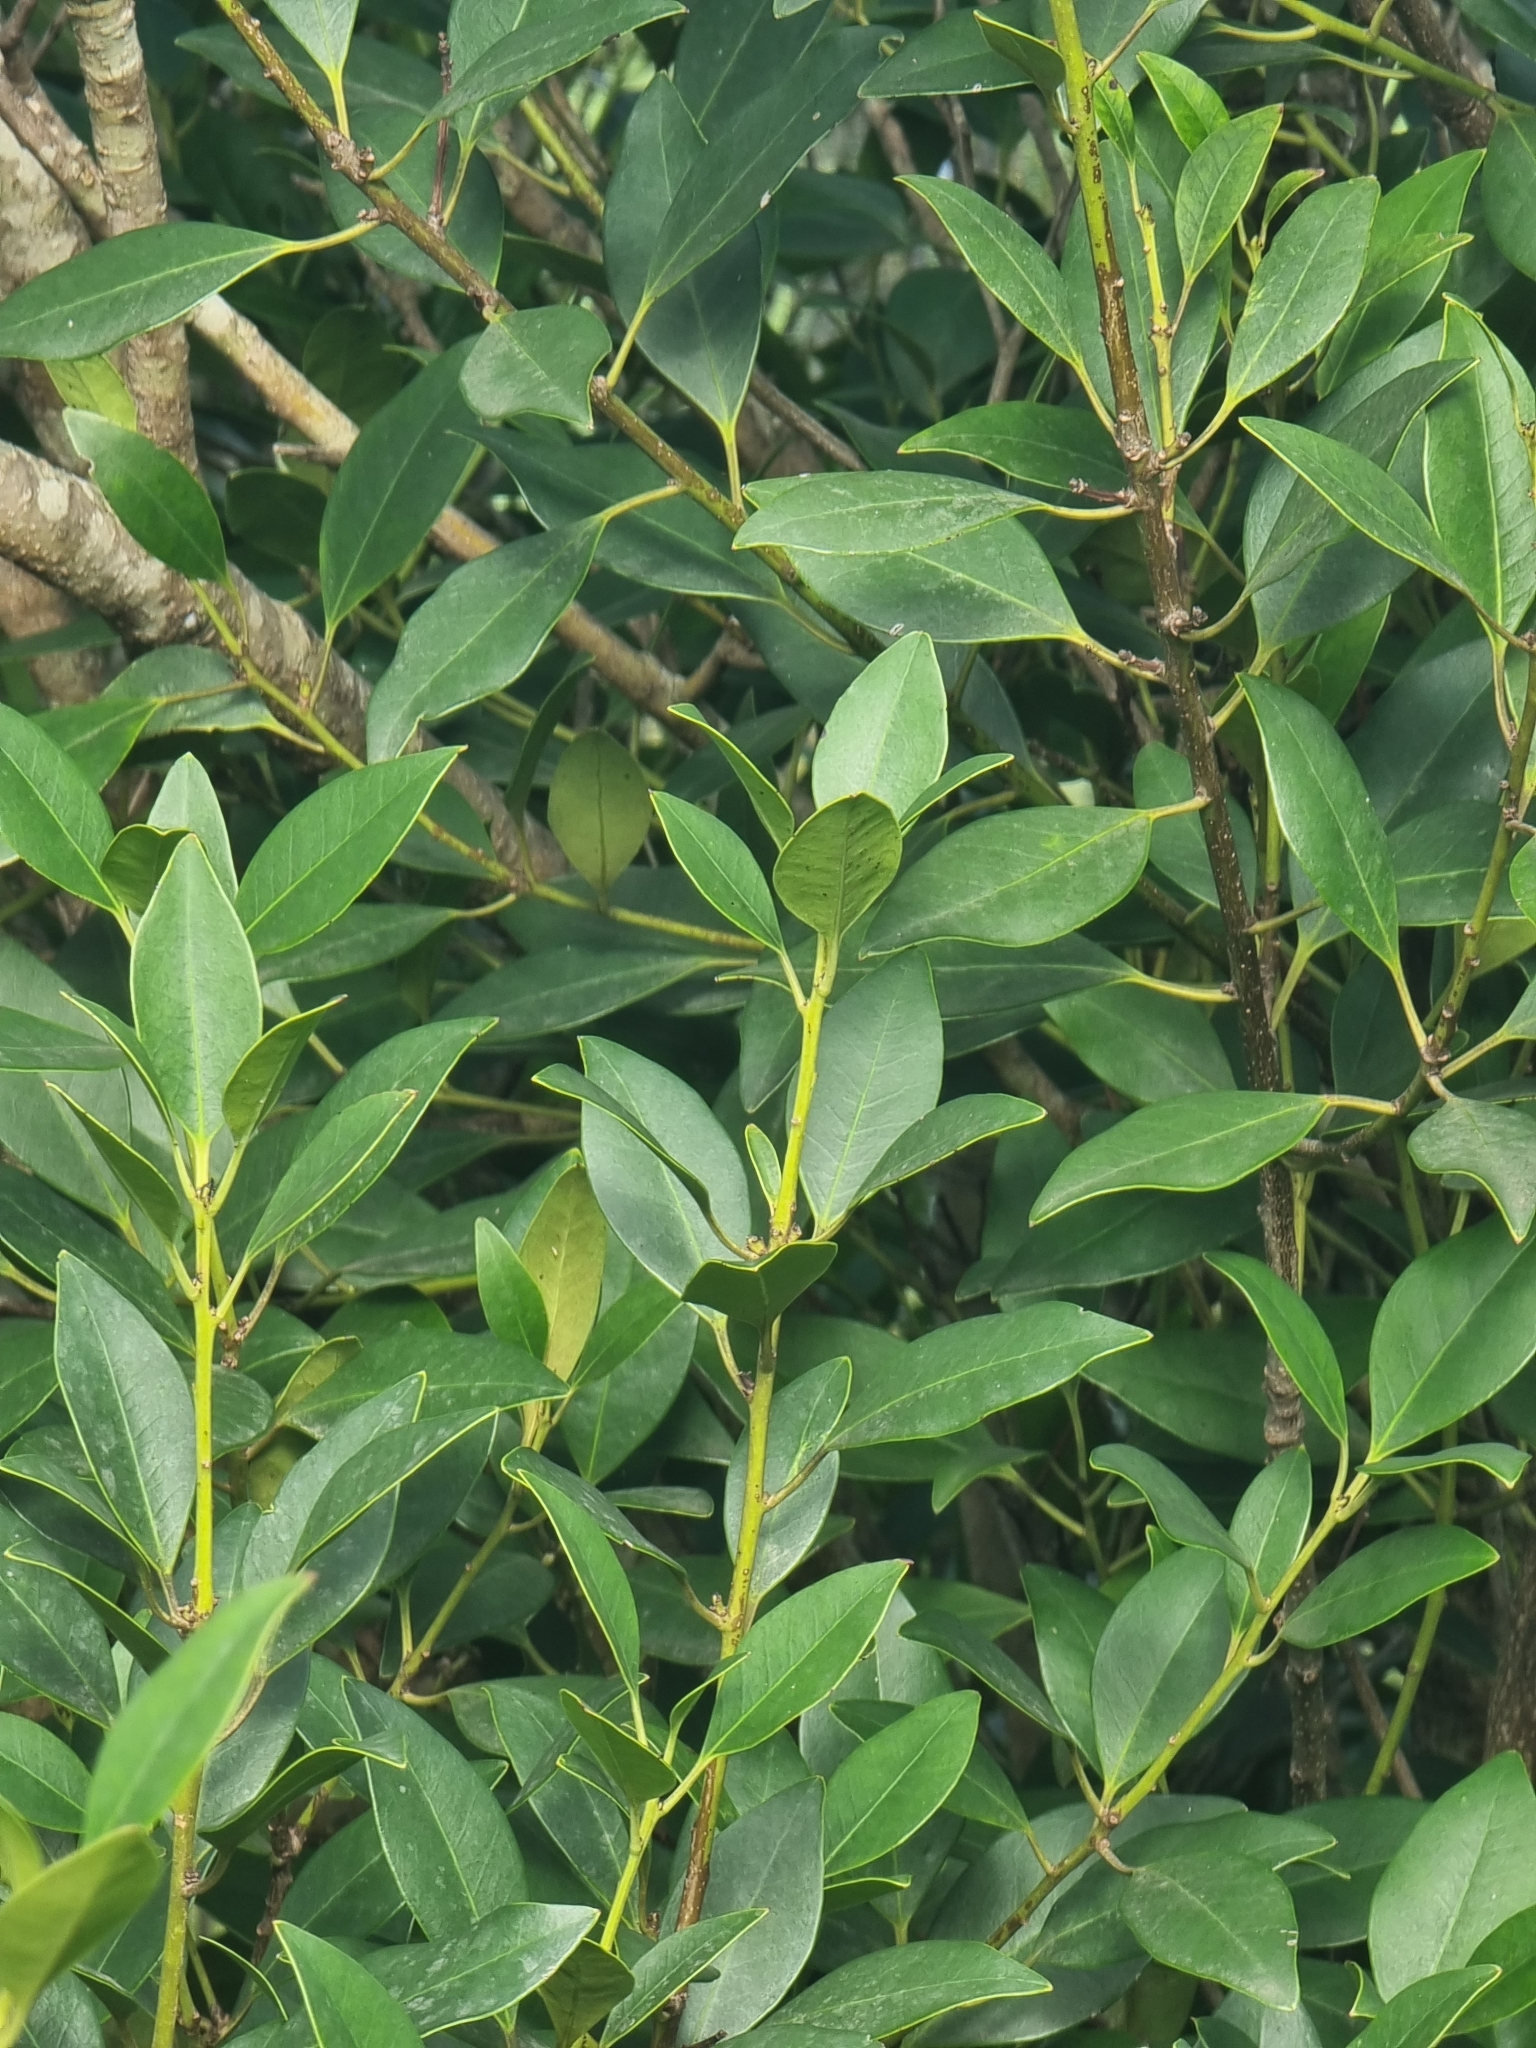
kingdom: Plantae
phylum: Tracheophyta
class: Magnoliopsida
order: Aquifoliales
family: Aquifoliaceae
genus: Ilex
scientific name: Ilex canariensis
